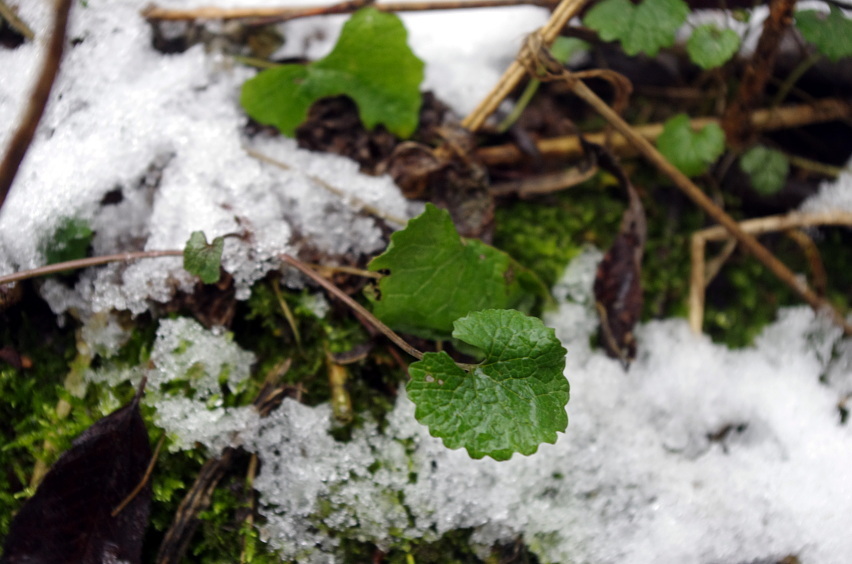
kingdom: Plantae
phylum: Tracheophyta
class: Magnoliopsida
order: Brassicales
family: Brassicaceae
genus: Alliaria
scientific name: Alliaria petiolata
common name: Garlic mustard
